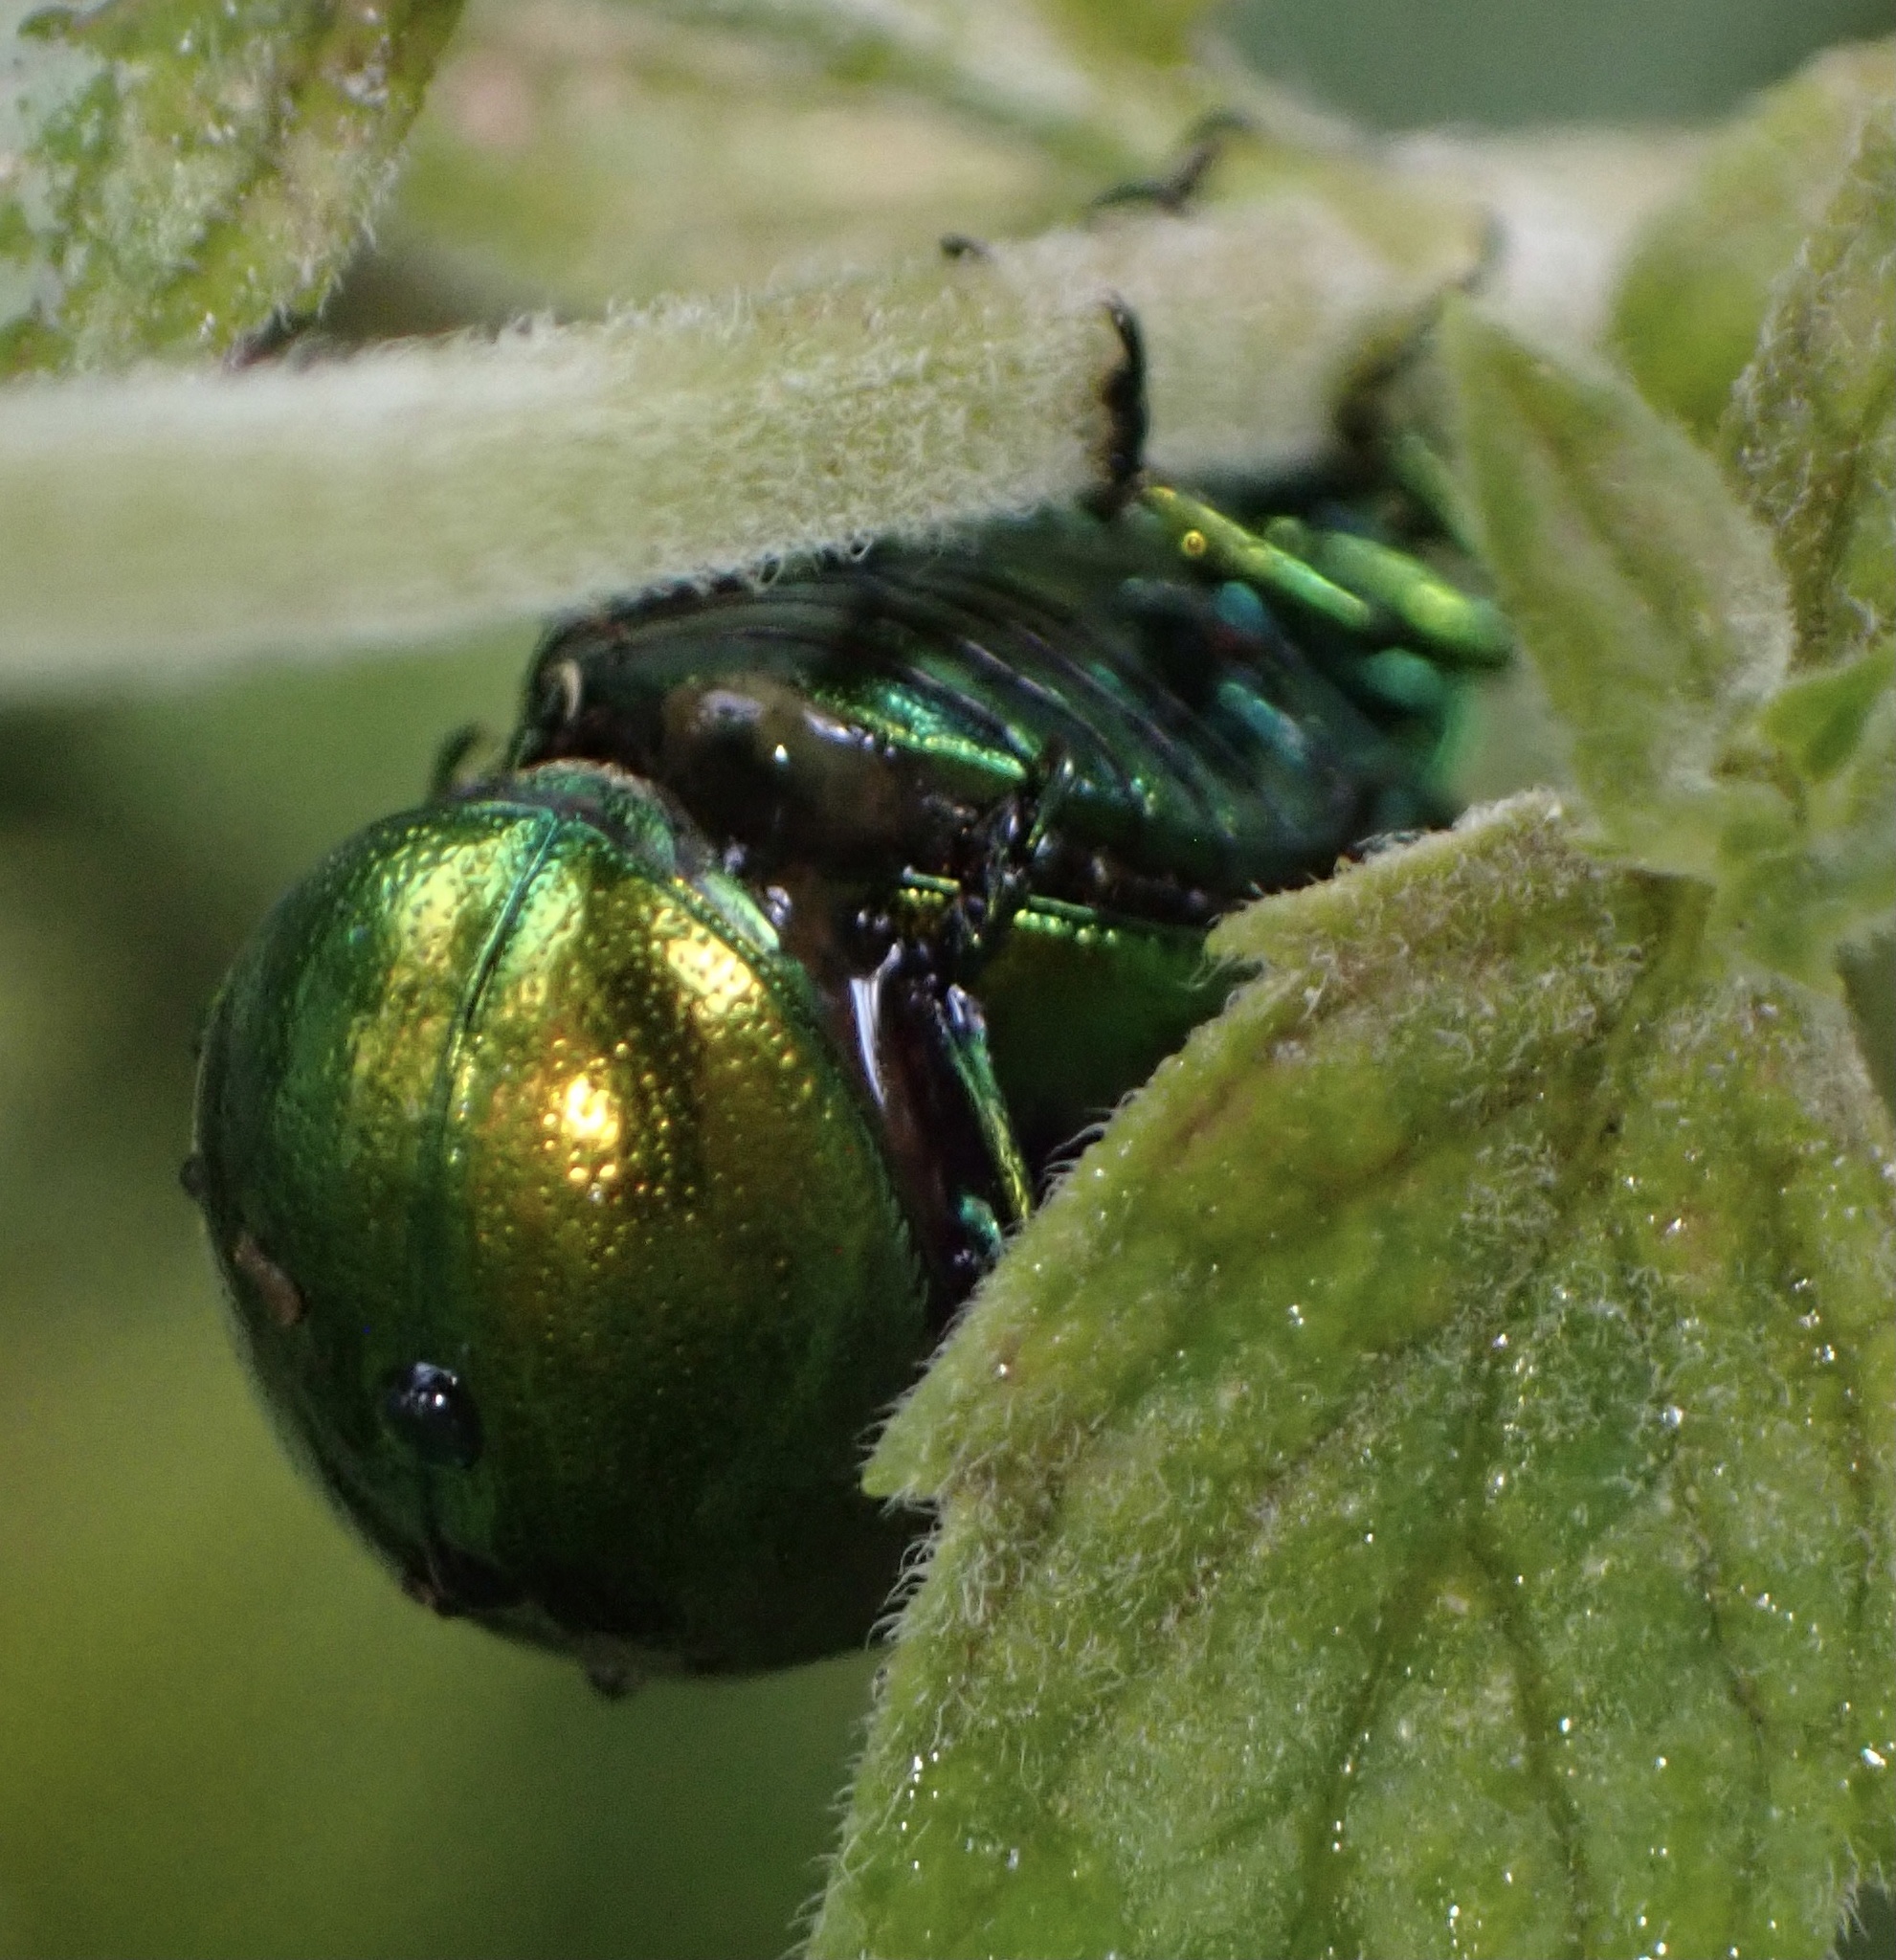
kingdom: Animalia
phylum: Arthropoda
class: Insecta
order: Coleoptera
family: Chrysomelidae
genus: Chrysolina
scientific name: Chrysolina herbacea
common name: Mint leaf beatle
